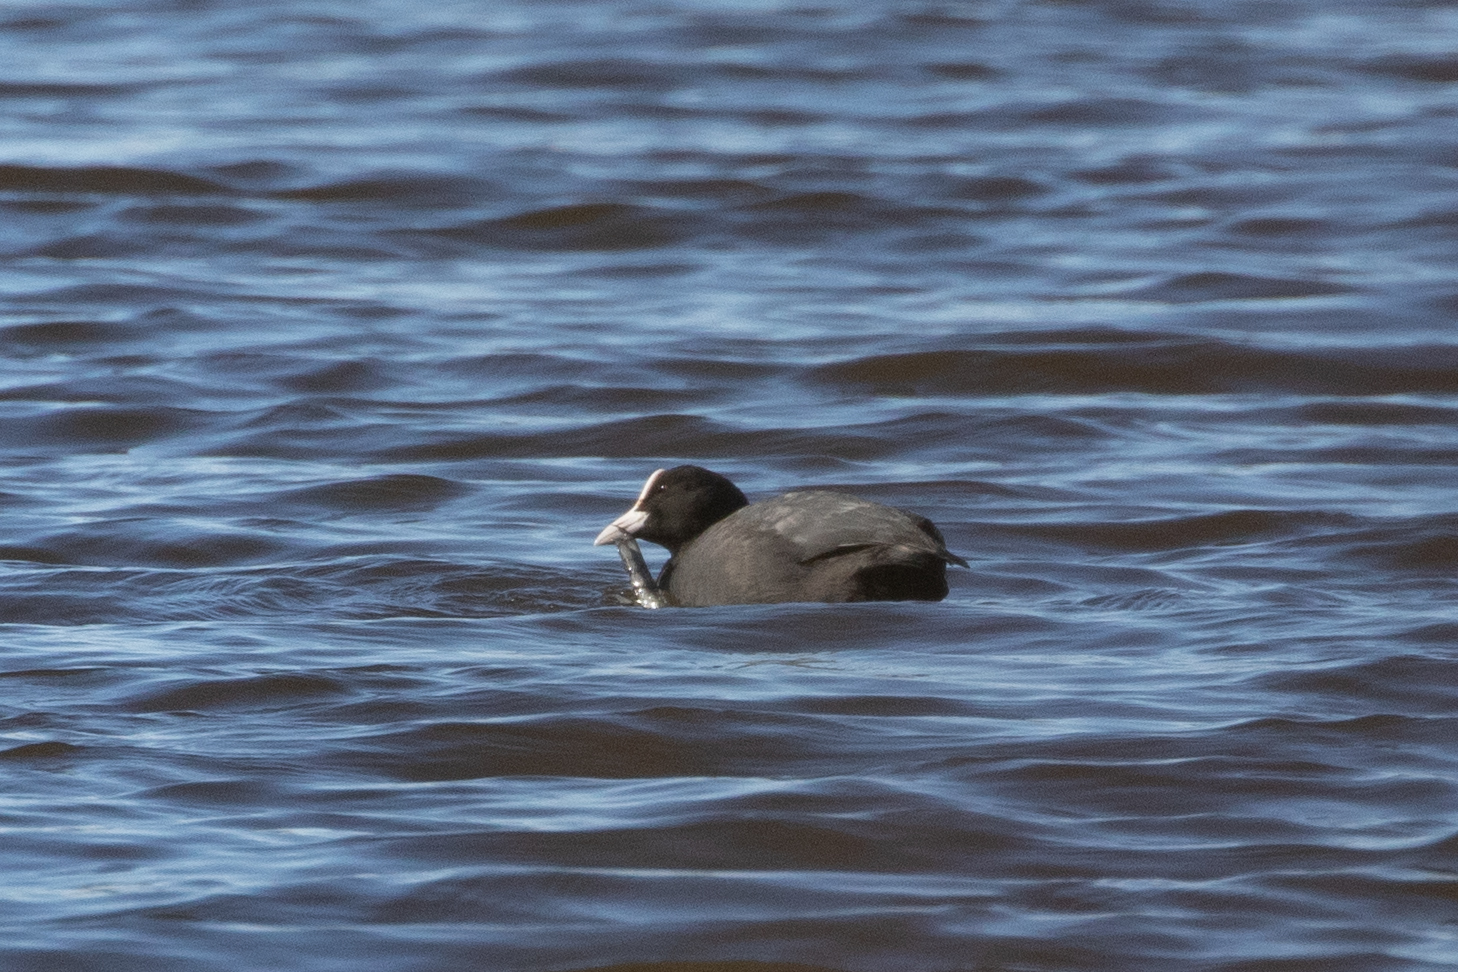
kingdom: Animalia
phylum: Chordata
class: Aves
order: Gruiformes
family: Rallidae
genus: Fulica
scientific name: Fulica atra
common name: Eurasian coot
